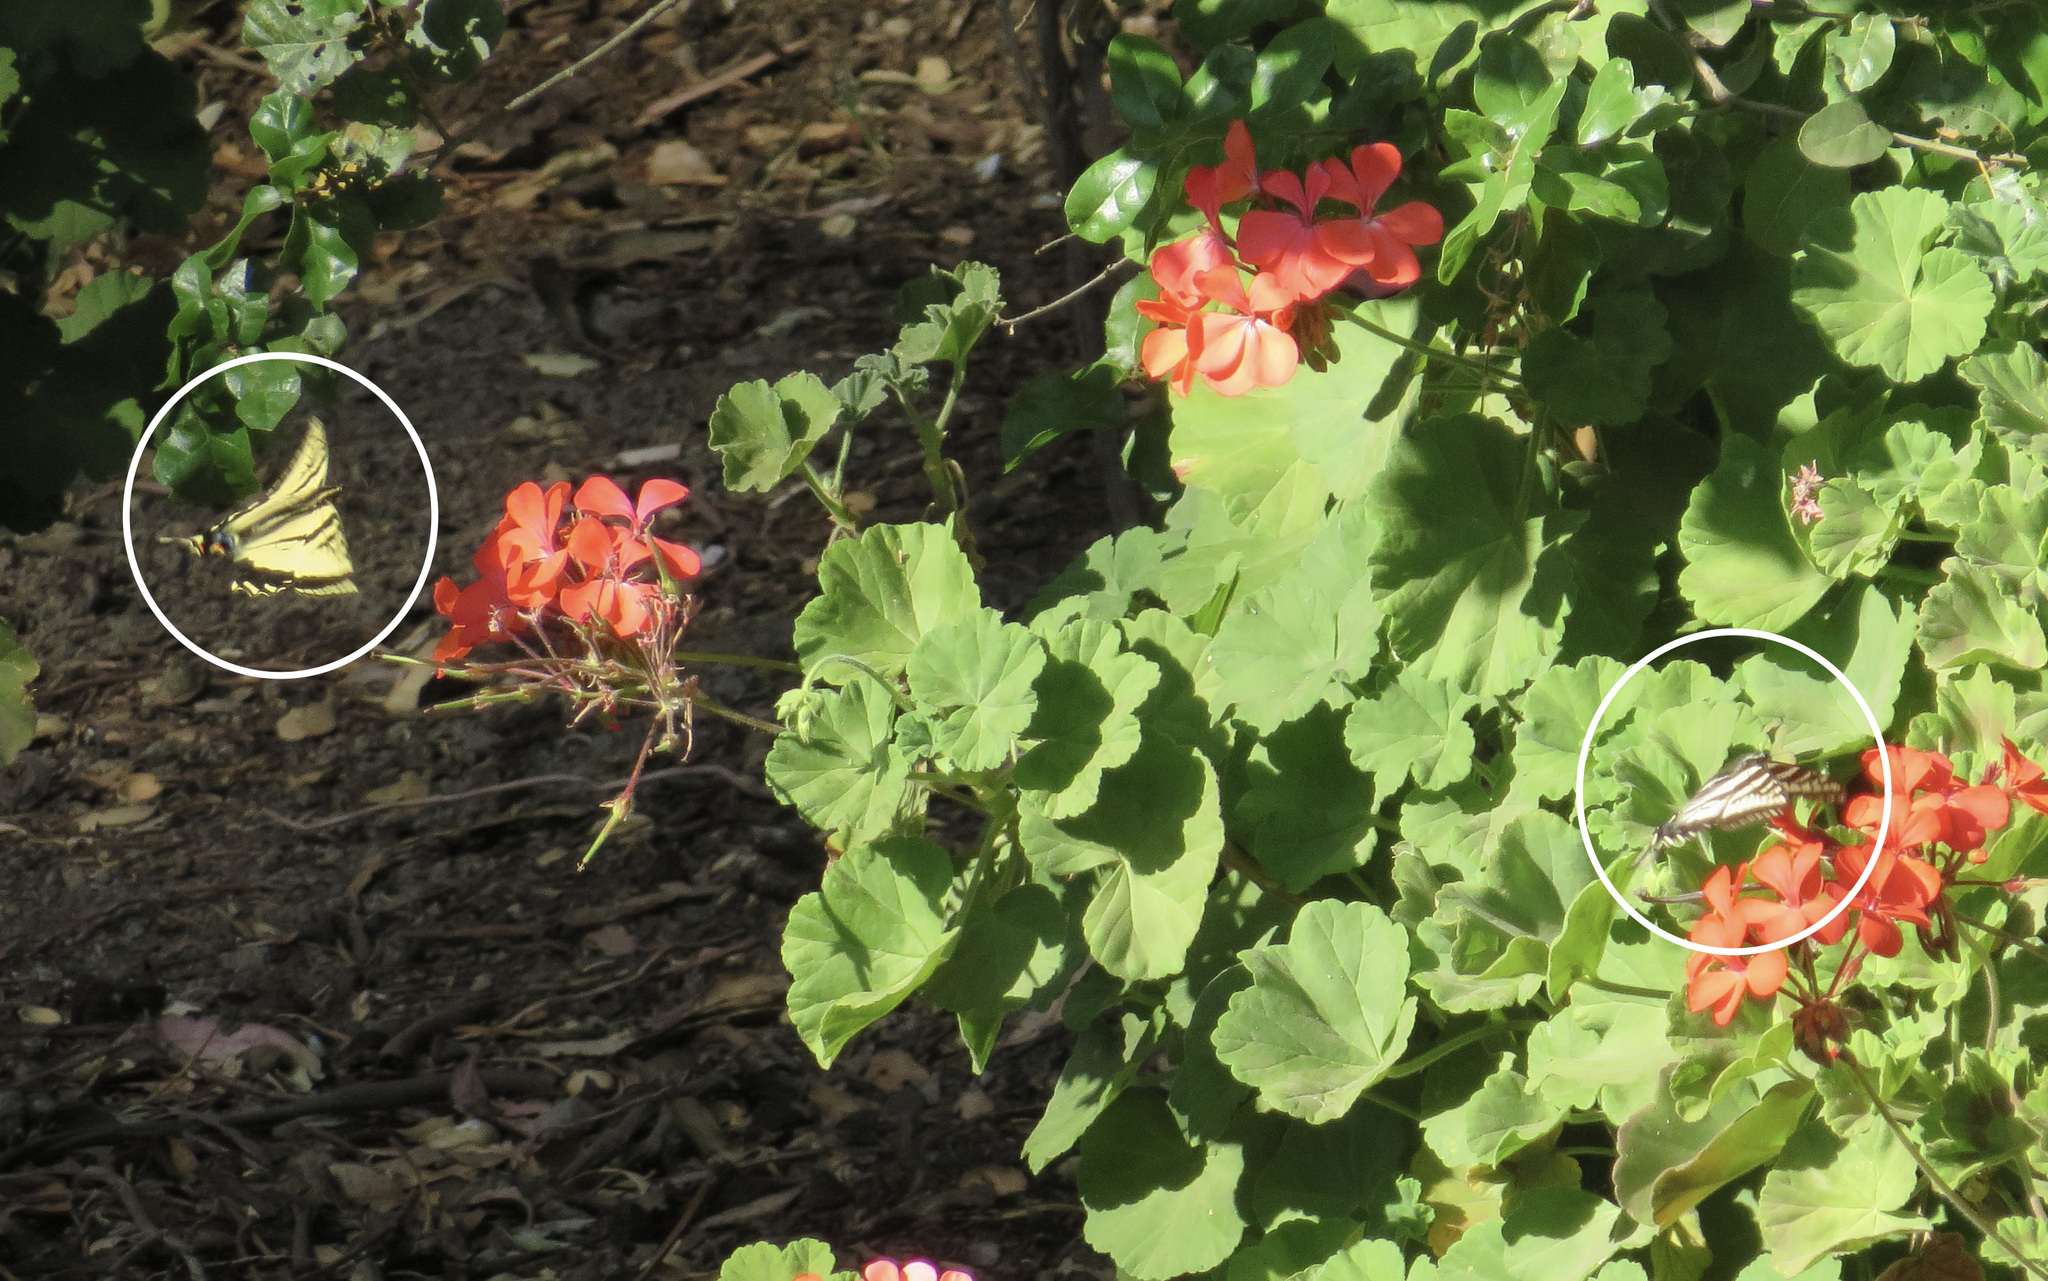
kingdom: Animalia
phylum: Arthropoda
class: Insecta
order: Lepidoptera
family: Papilionidae
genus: Papilio
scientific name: Papilio rutulus
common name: Western tiger swallowtail
